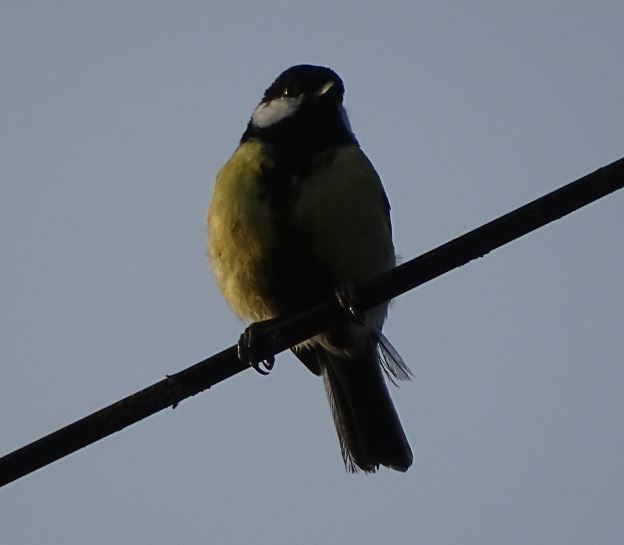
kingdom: Animalia
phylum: Chordata
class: Aves
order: Passeriformes
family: Paridae
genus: Parus
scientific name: Parus major
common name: Great tit
